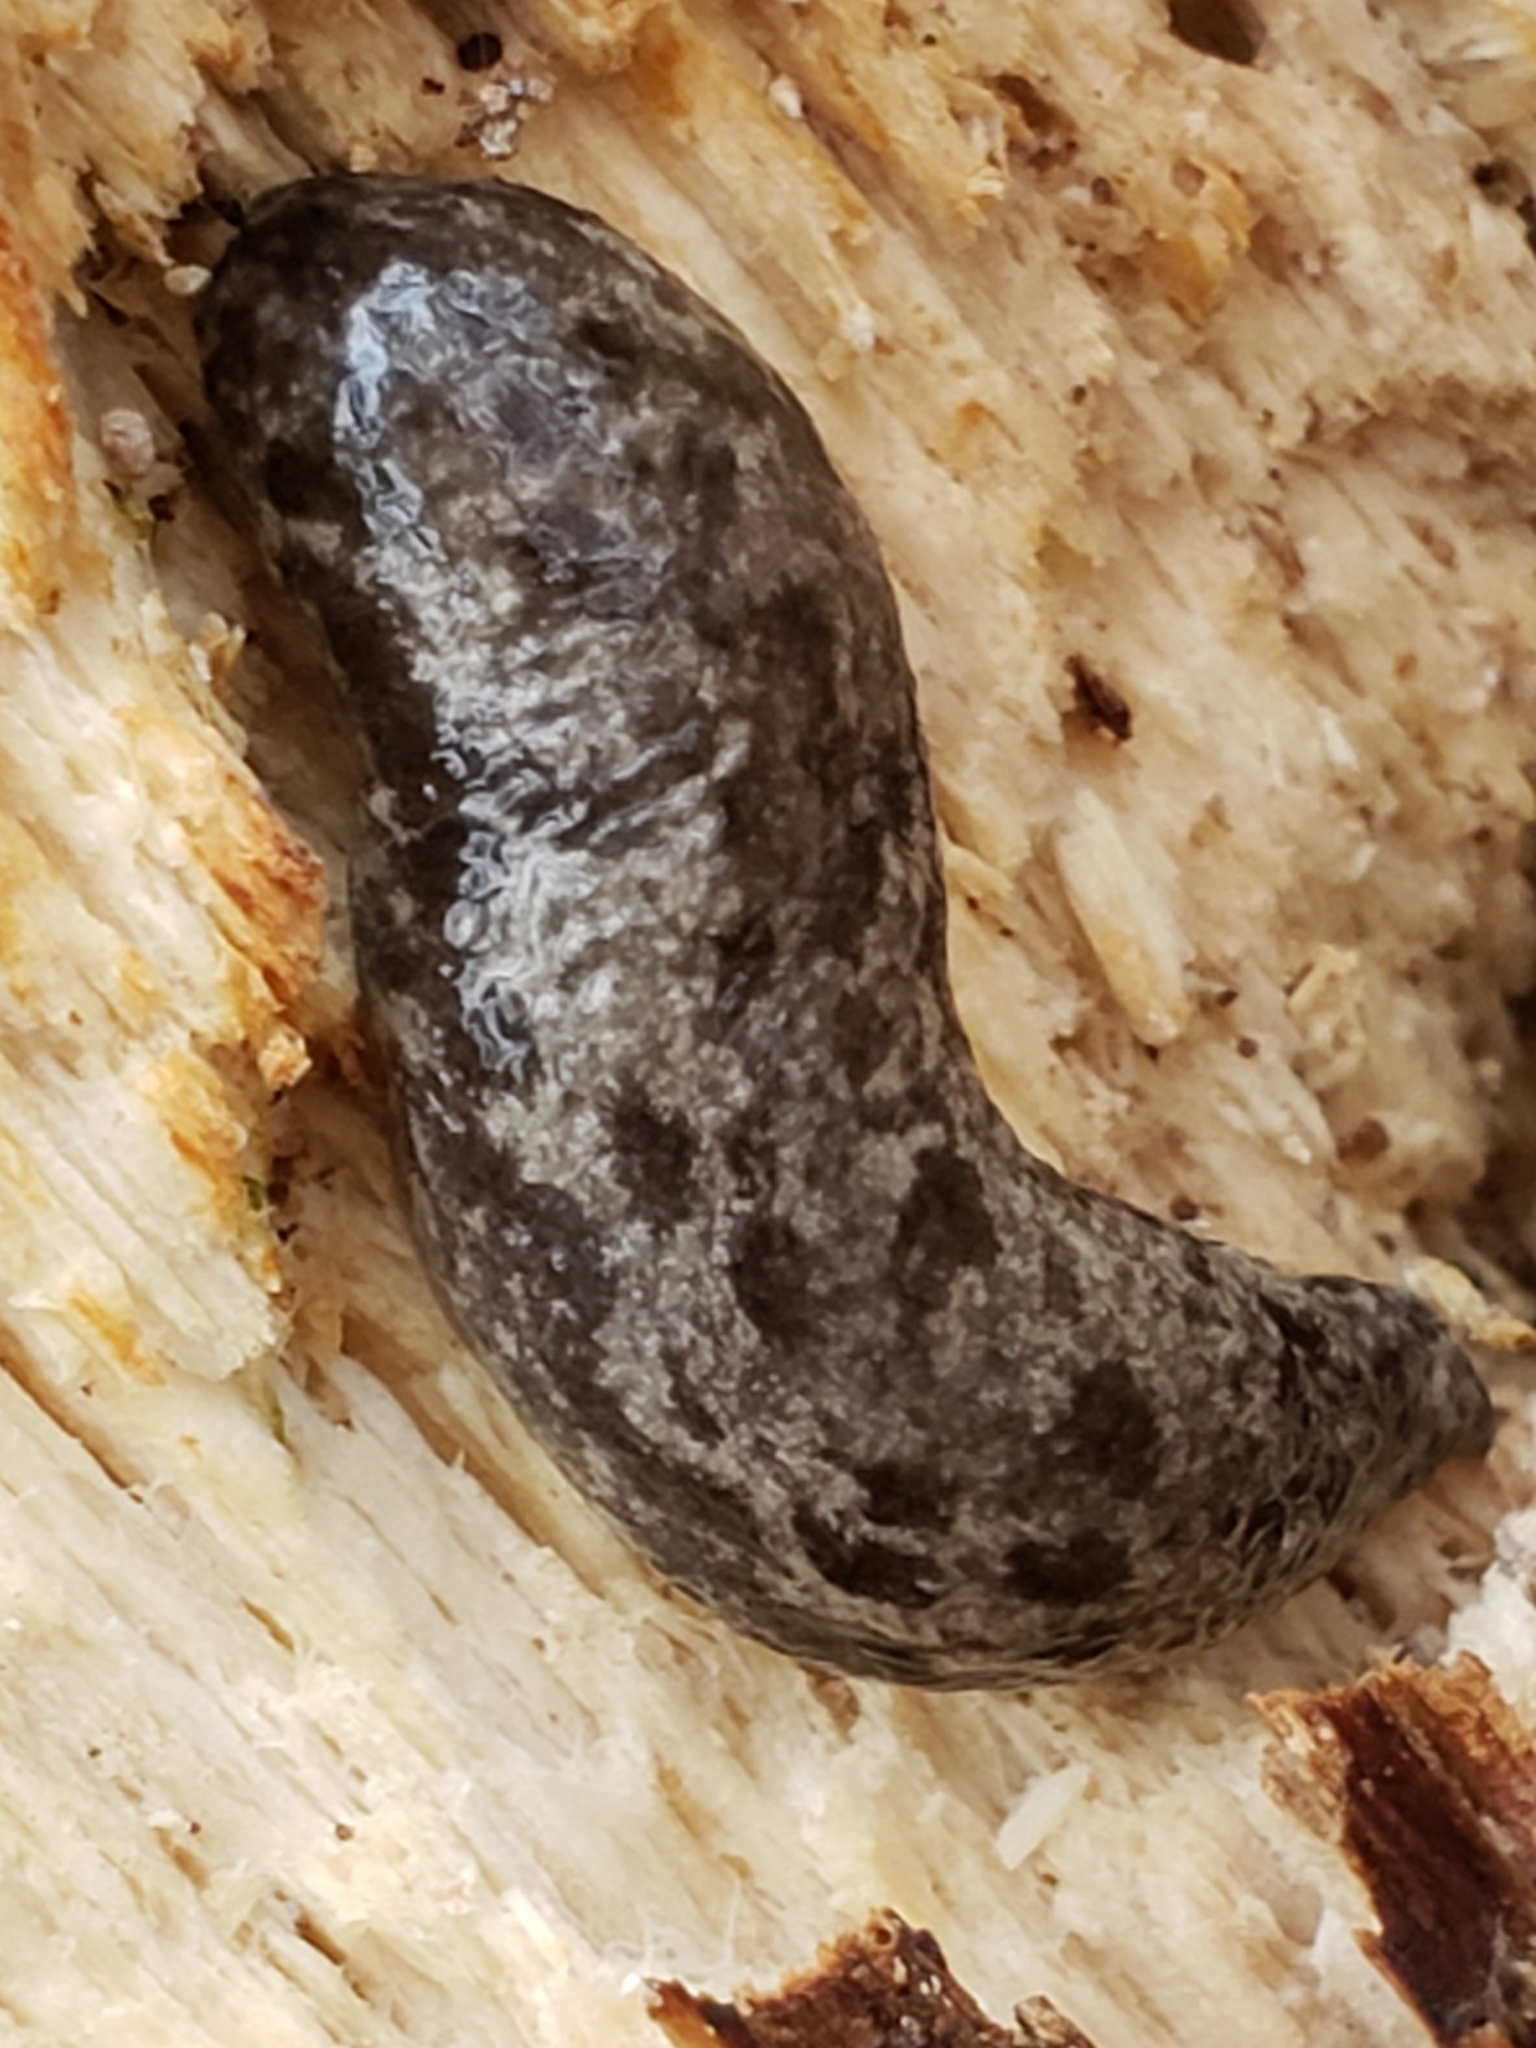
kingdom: Animalia
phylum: Mollusca
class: Gastropoda
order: Stylommatophora
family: Philomycidae
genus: Megapallifera
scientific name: Megapallifera mutabilis
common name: Changeable mantleslug
